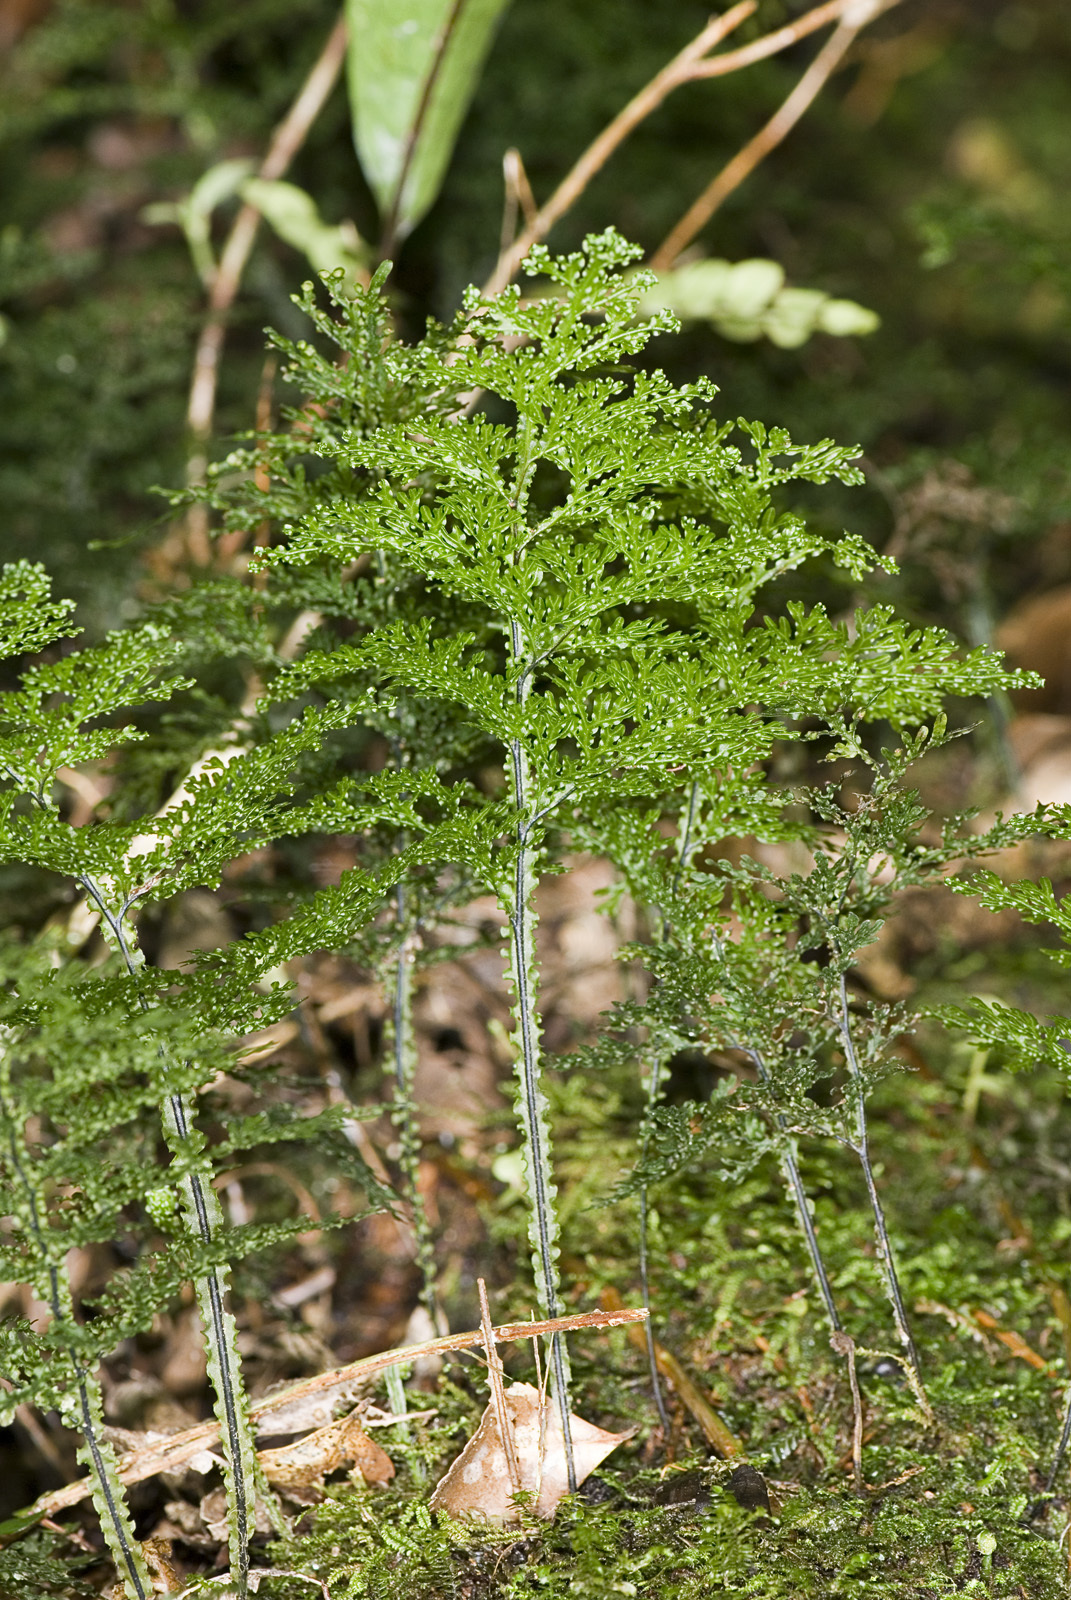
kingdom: Plantae
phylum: Tracheophyta
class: Polypodiopsida
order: Hymenophyllales
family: Hymenophyllaceae
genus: Hymenophyllum
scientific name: Hymenophyllum flexuosum
